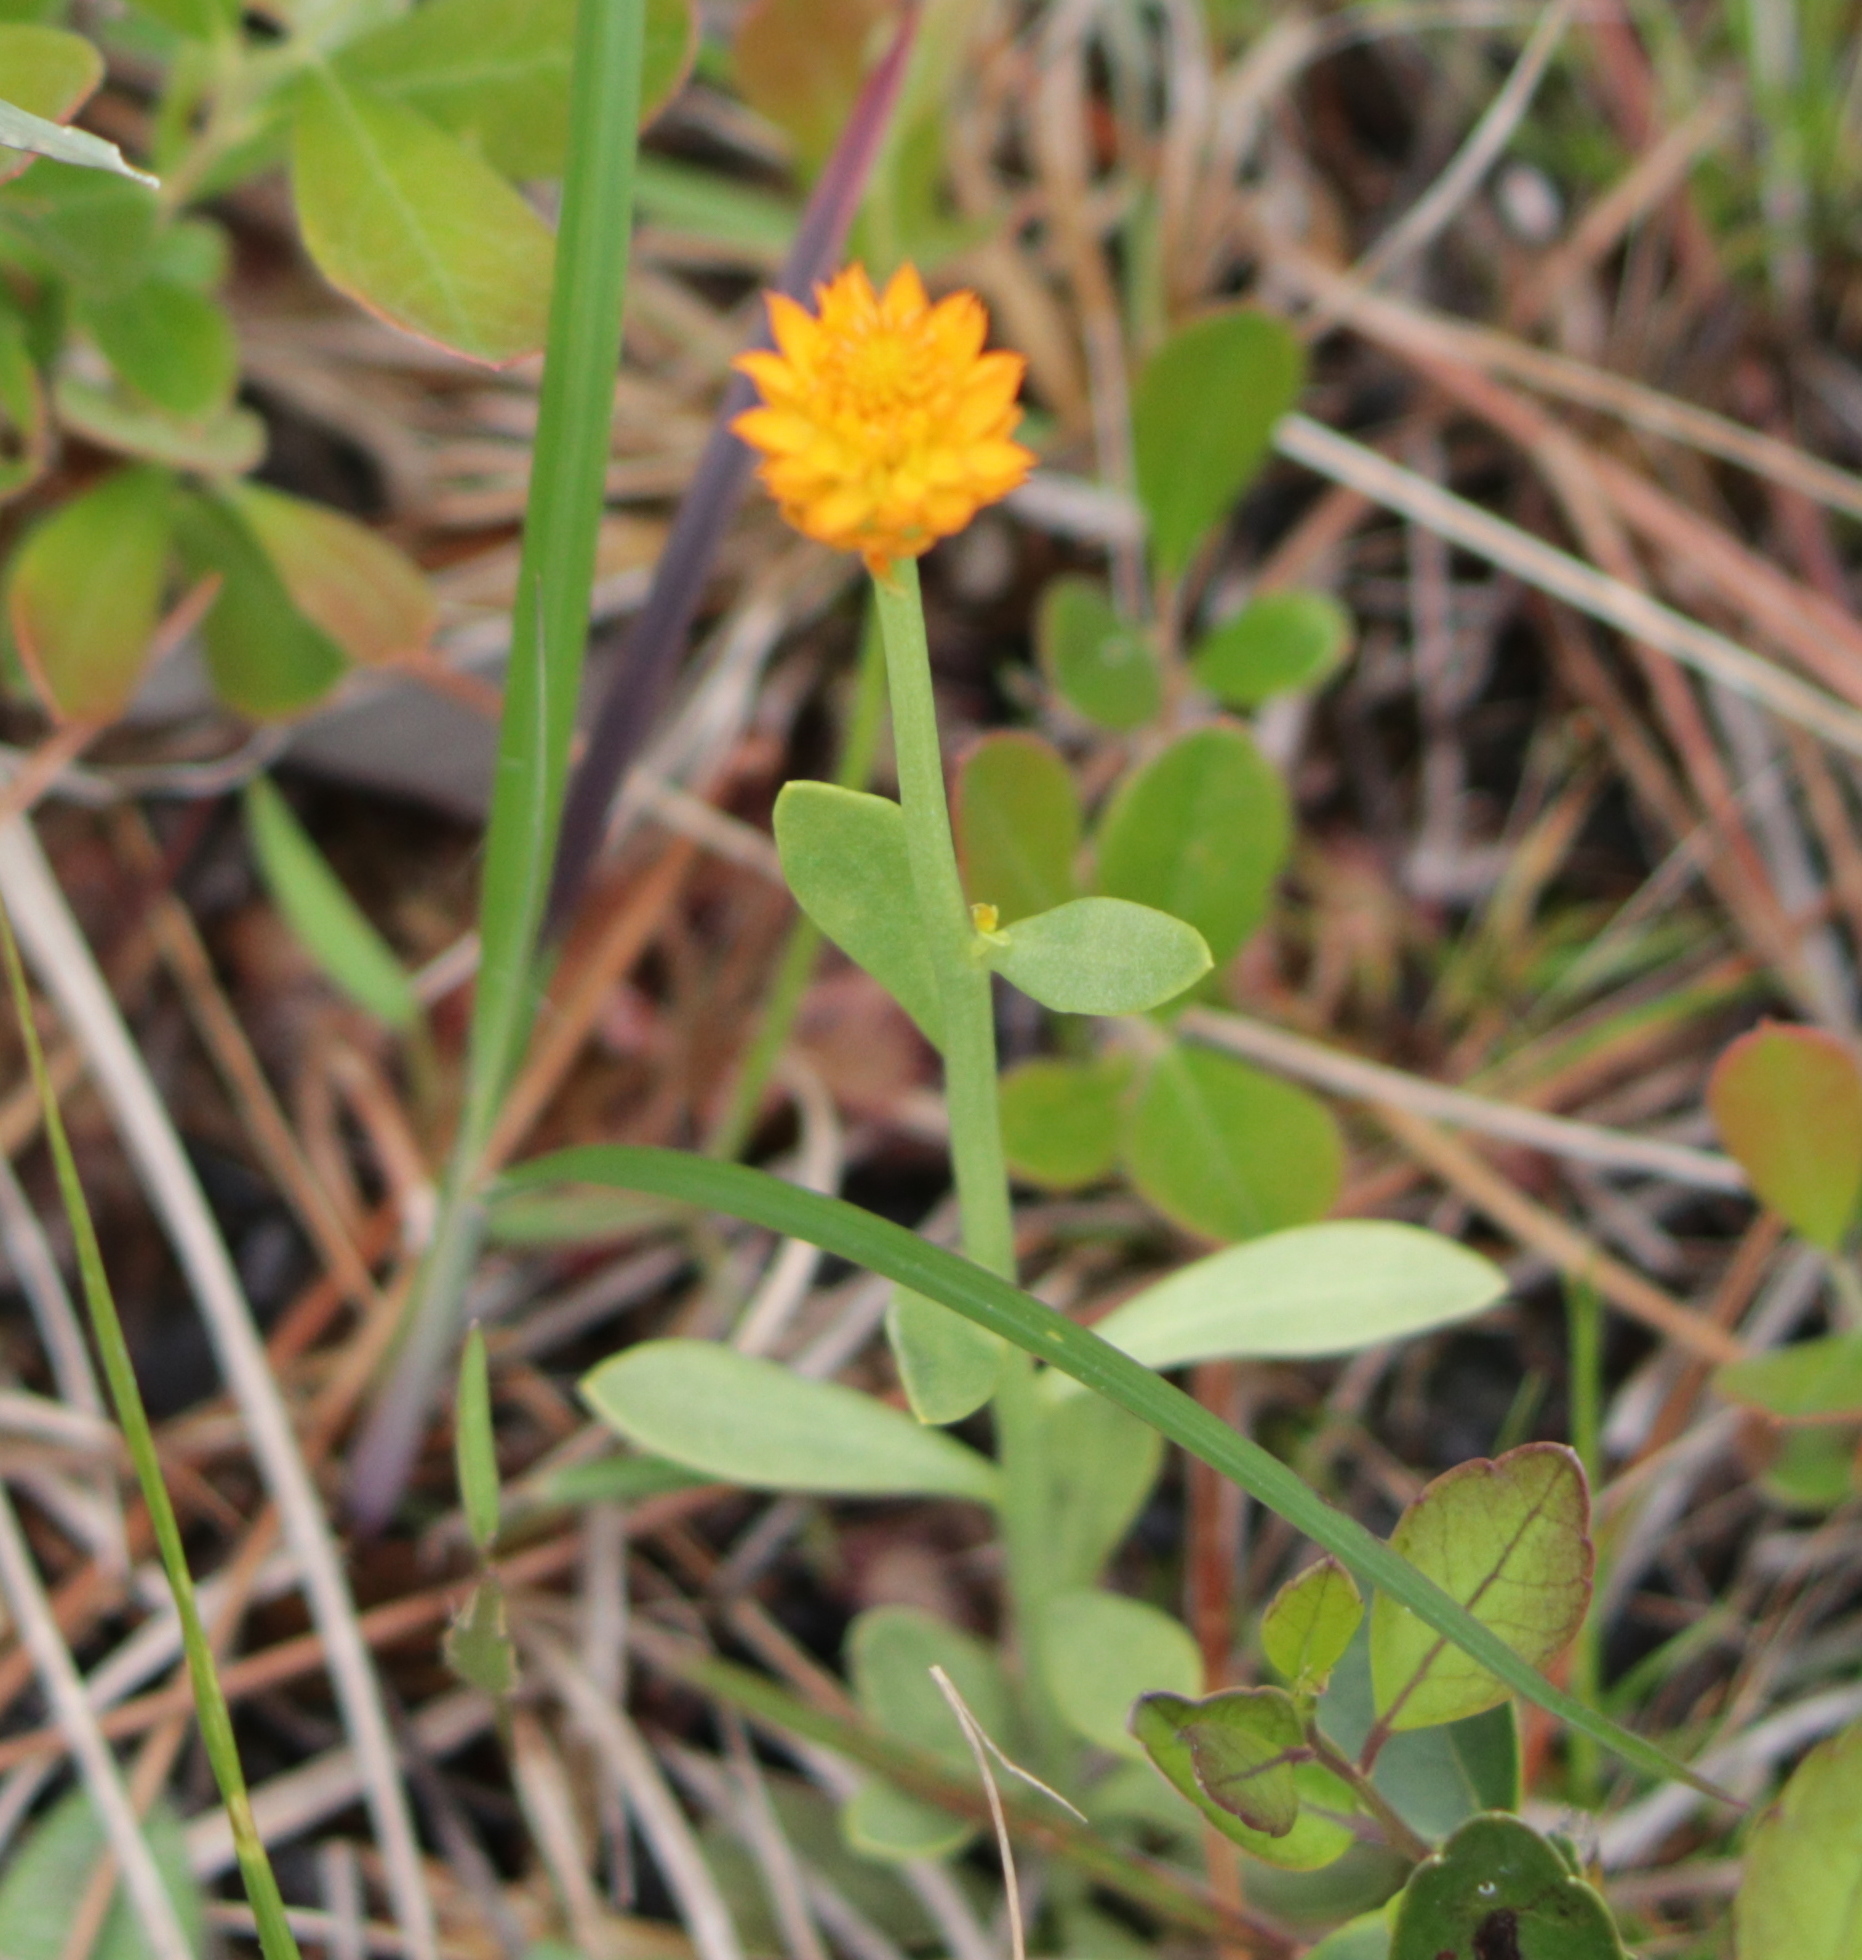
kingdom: Plantae
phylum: Tracheophyta
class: Magnoliopsida
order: Fabales
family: Polygalaceae
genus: Polygala
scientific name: Polygala lutea
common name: Orange milkwort
